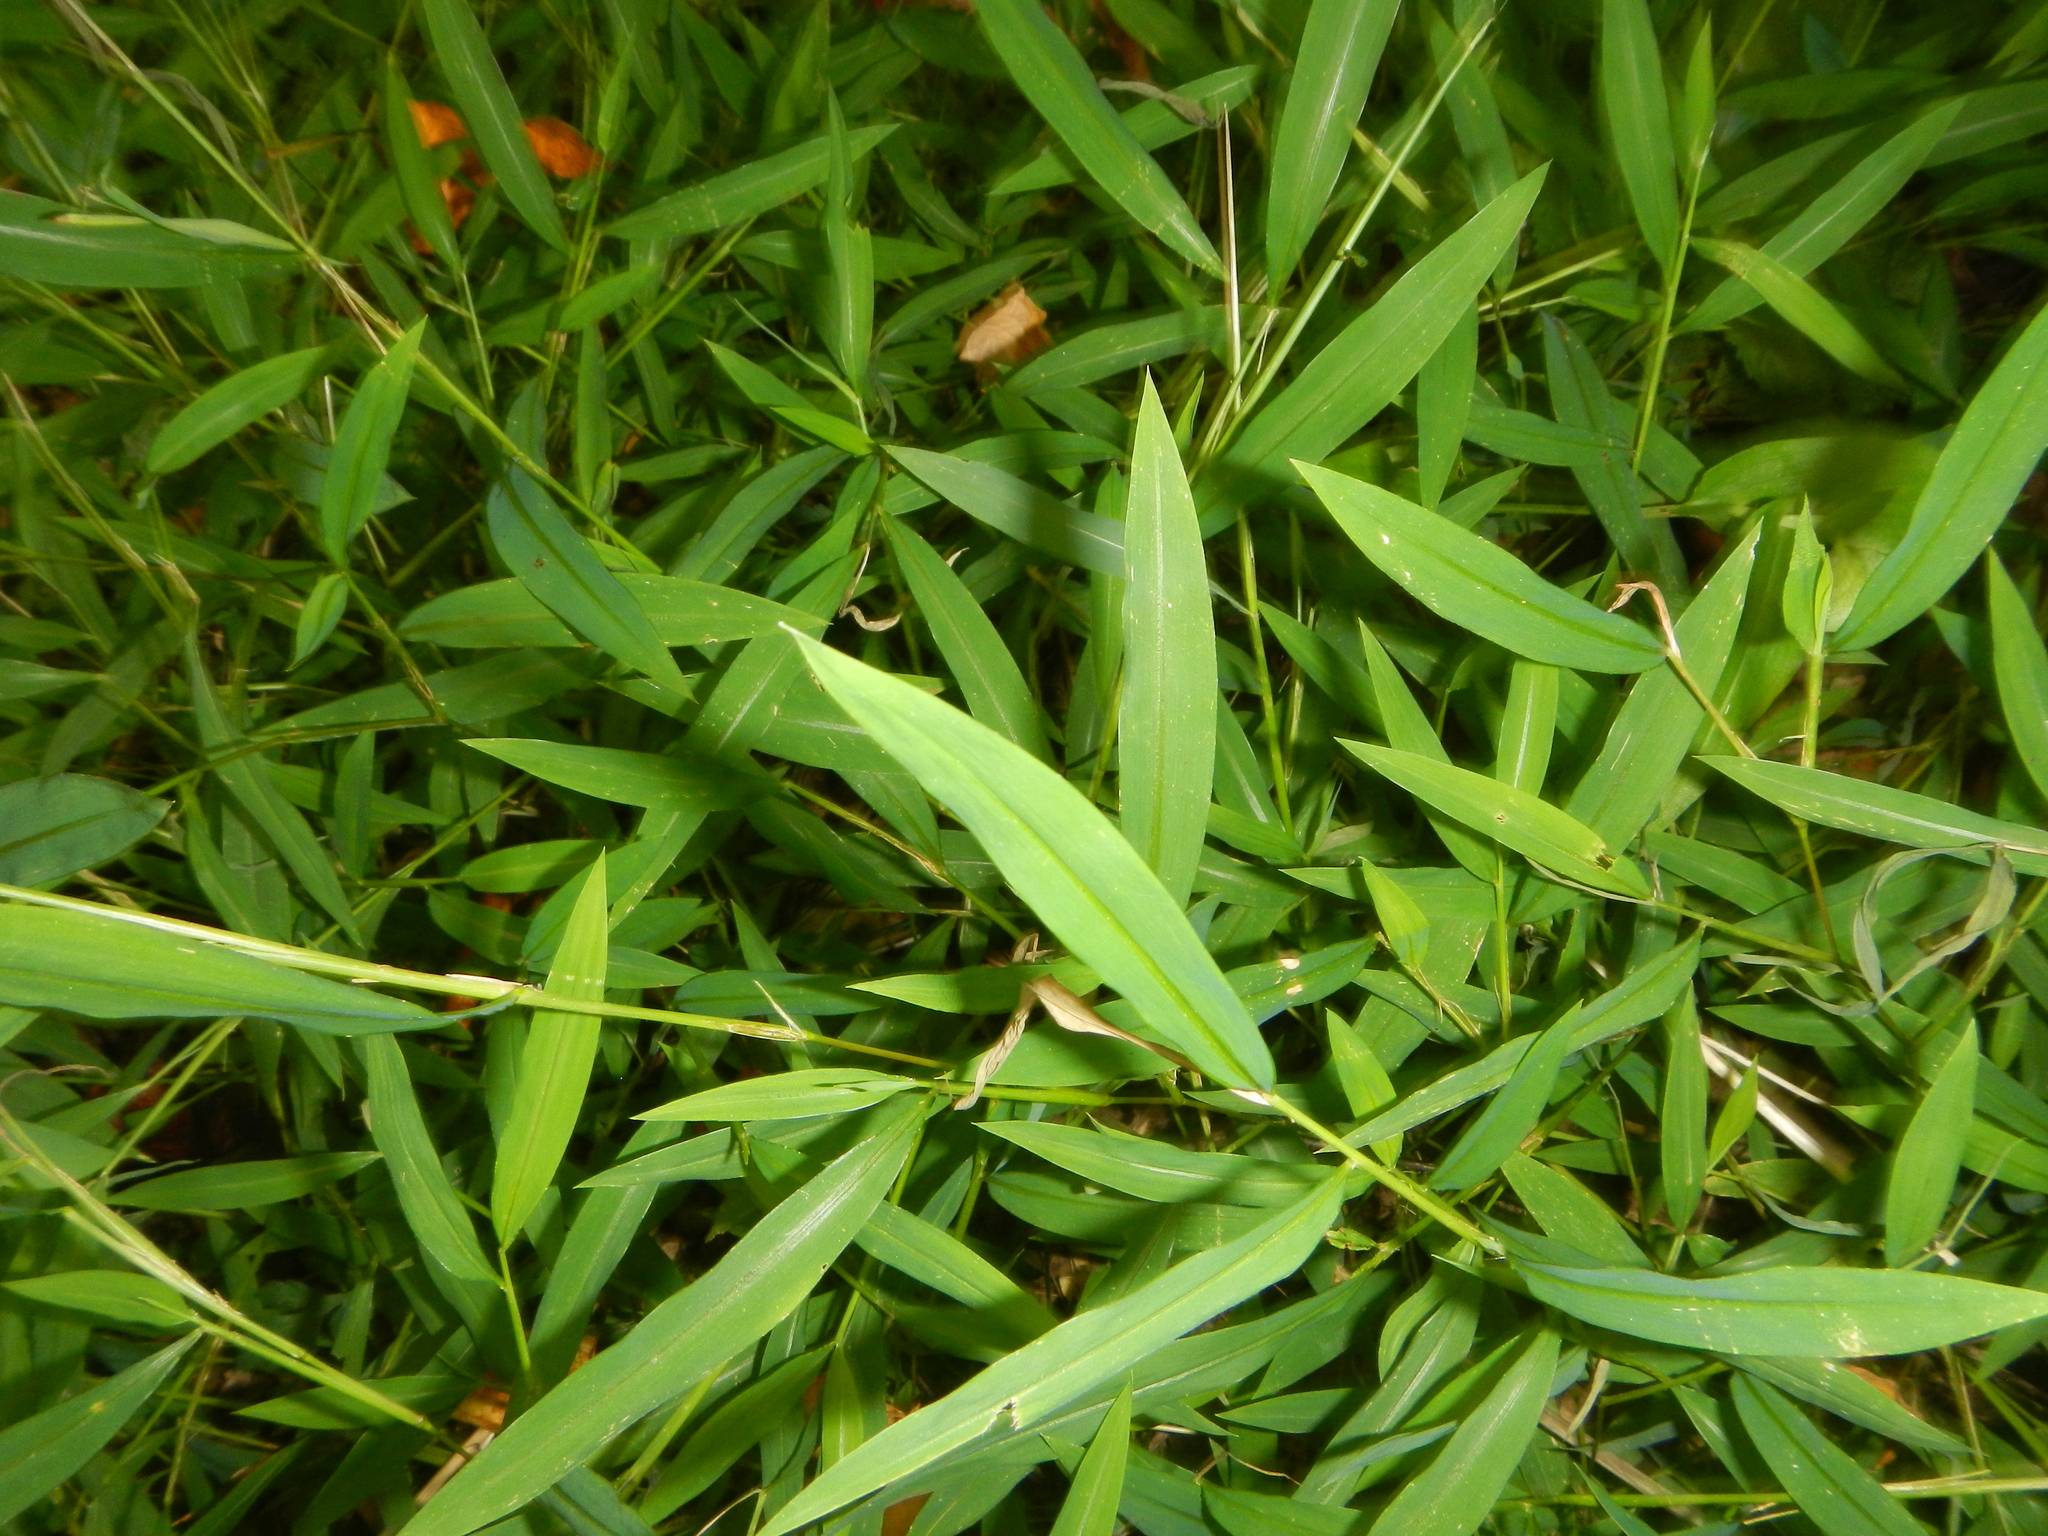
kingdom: Plantae
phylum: Tracheophyta
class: Liliopsida
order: Poales
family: Poaceae
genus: Microstegium
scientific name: Microstegium vimineum
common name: Japanese stiltgrass
